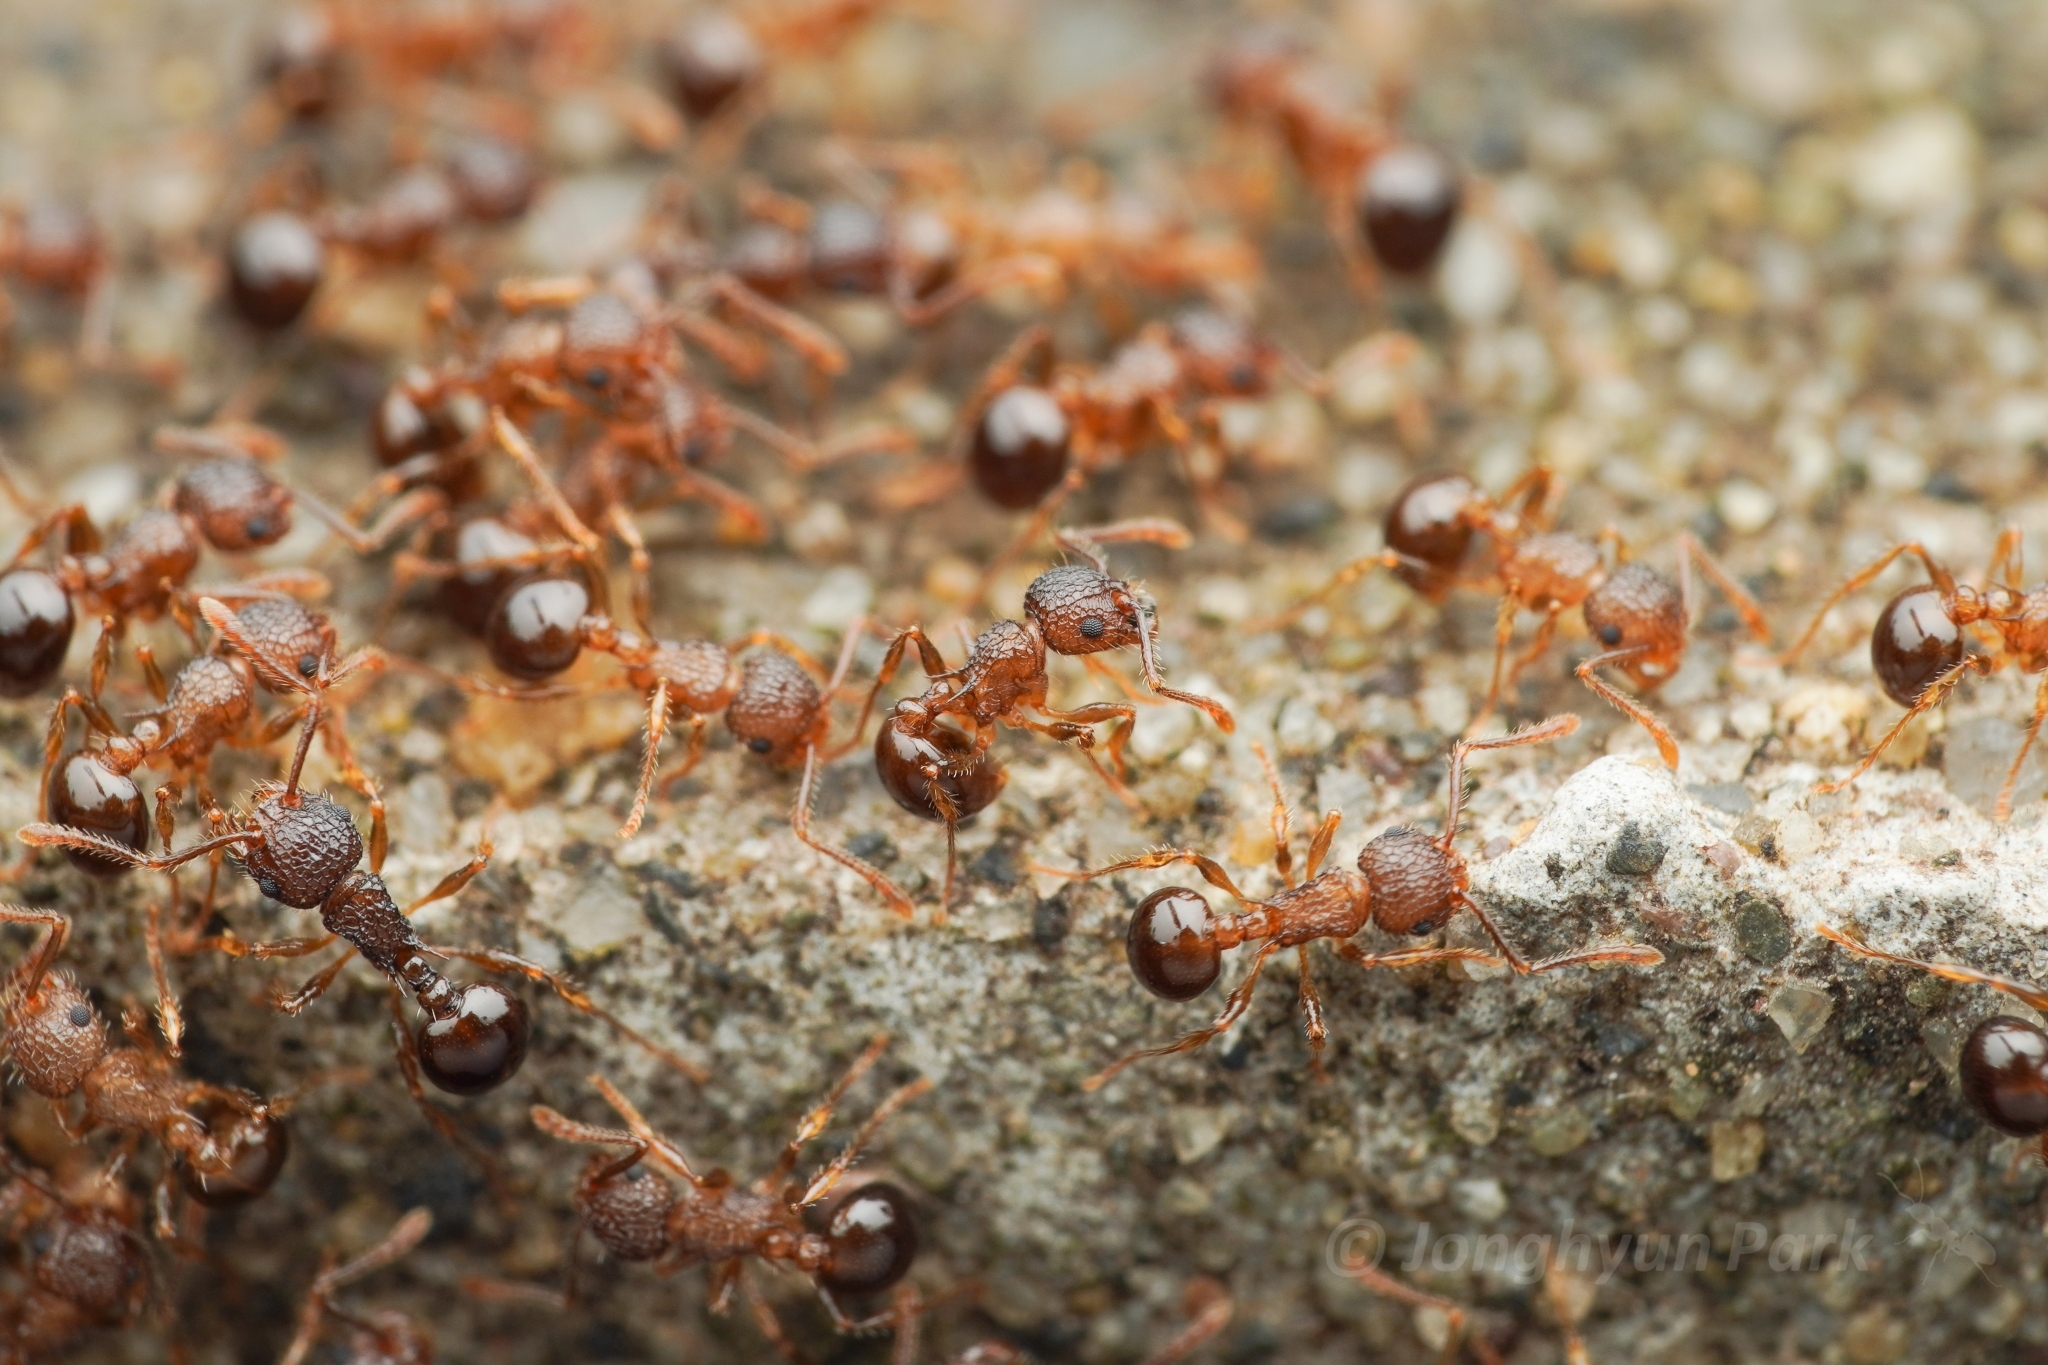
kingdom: Animalia
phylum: Arthropoda
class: Insecta
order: Hymenoptera
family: Formicidae
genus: Pristomyrmex
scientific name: Pristomyrmex punctatus
